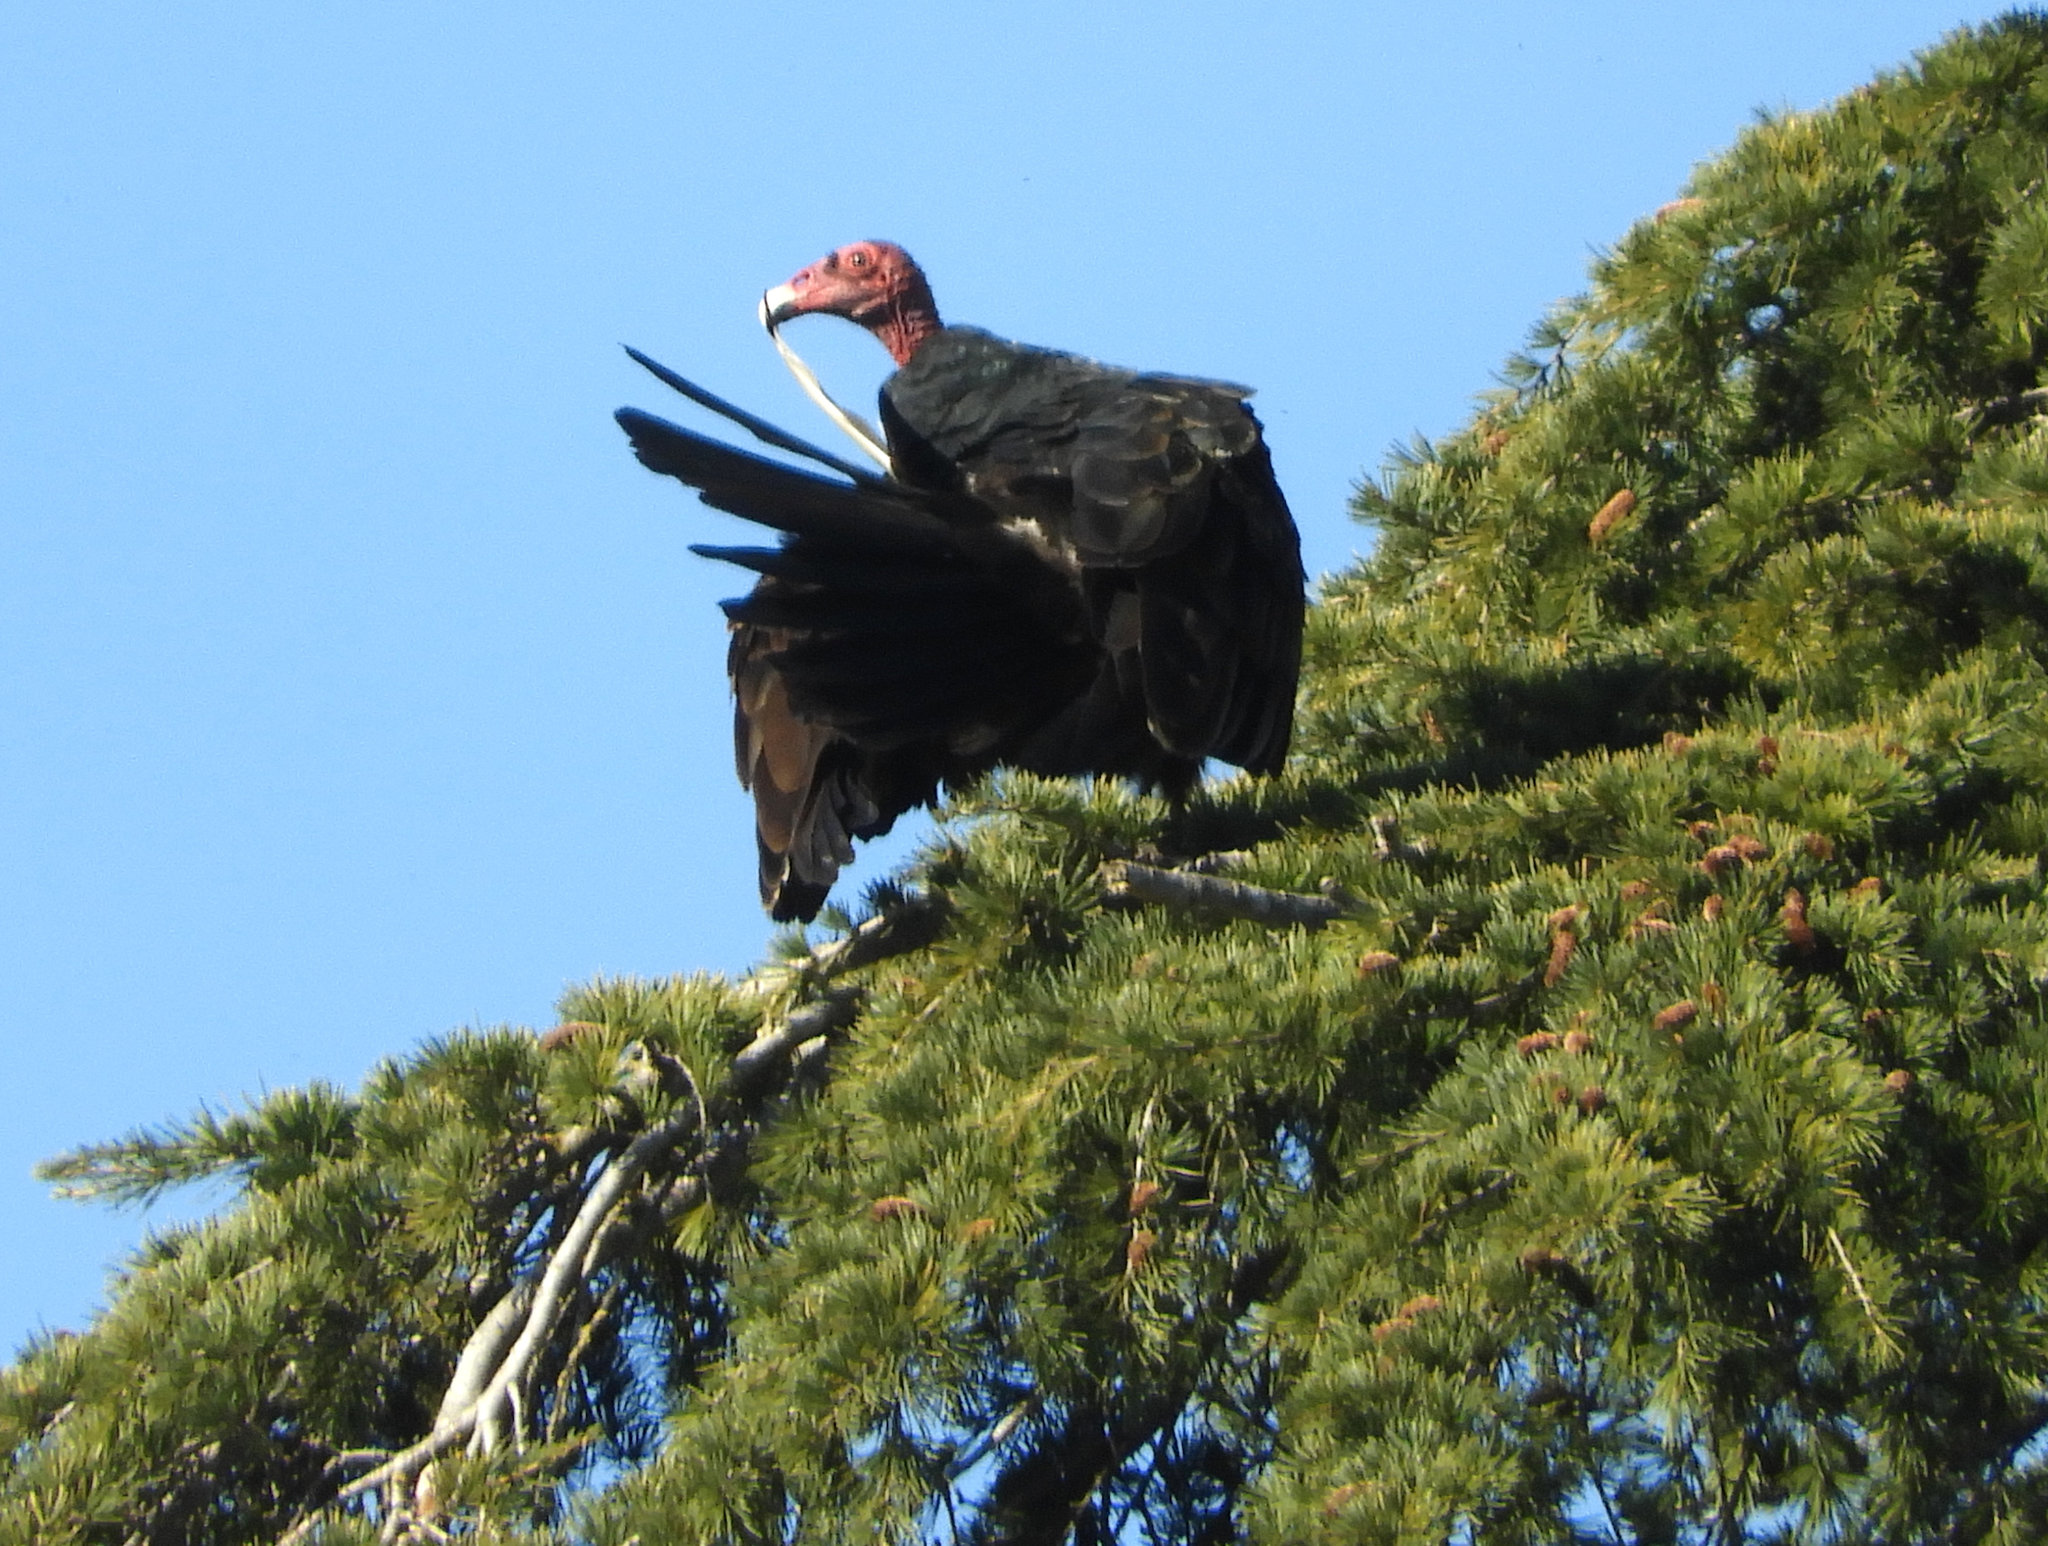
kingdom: Animalia
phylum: Chordata
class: Aves
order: Accipitriformes
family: Cathartidae
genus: Cathartes
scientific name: Cathartes aura
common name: Turkey vulture
